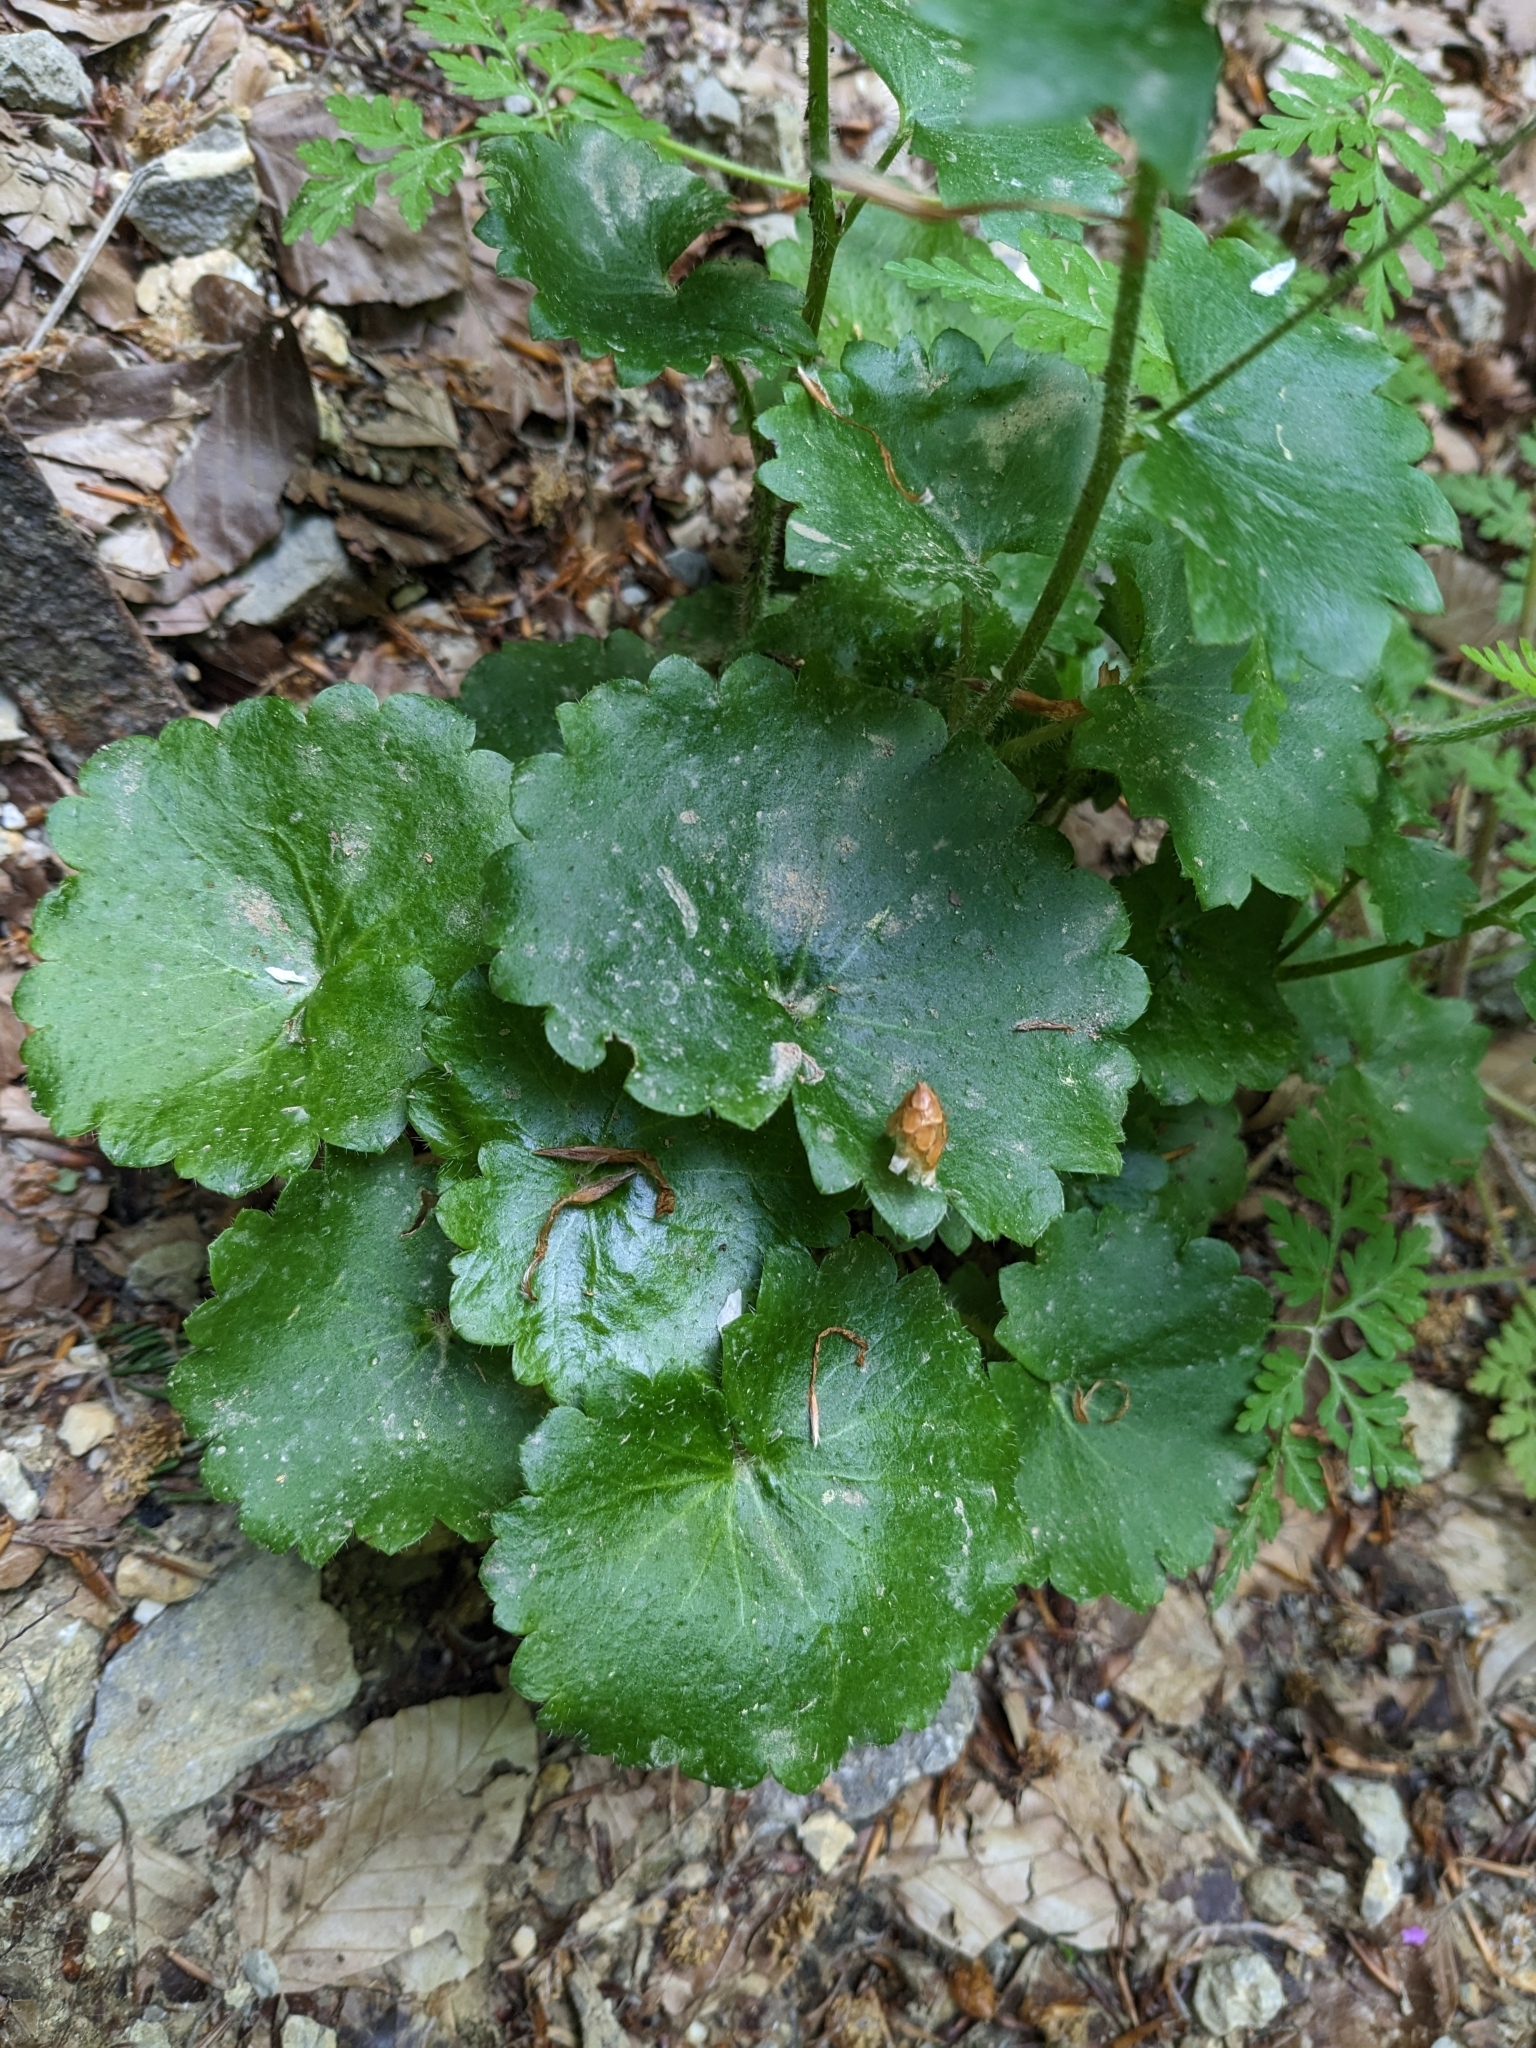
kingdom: Plantae
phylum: Tracheophyta
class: Magnoliopsida
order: Saxifragales
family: Saxifragaceae
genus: Saxifraga
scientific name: Saxifraga rotundifolia
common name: Round-leaved saxifrage
